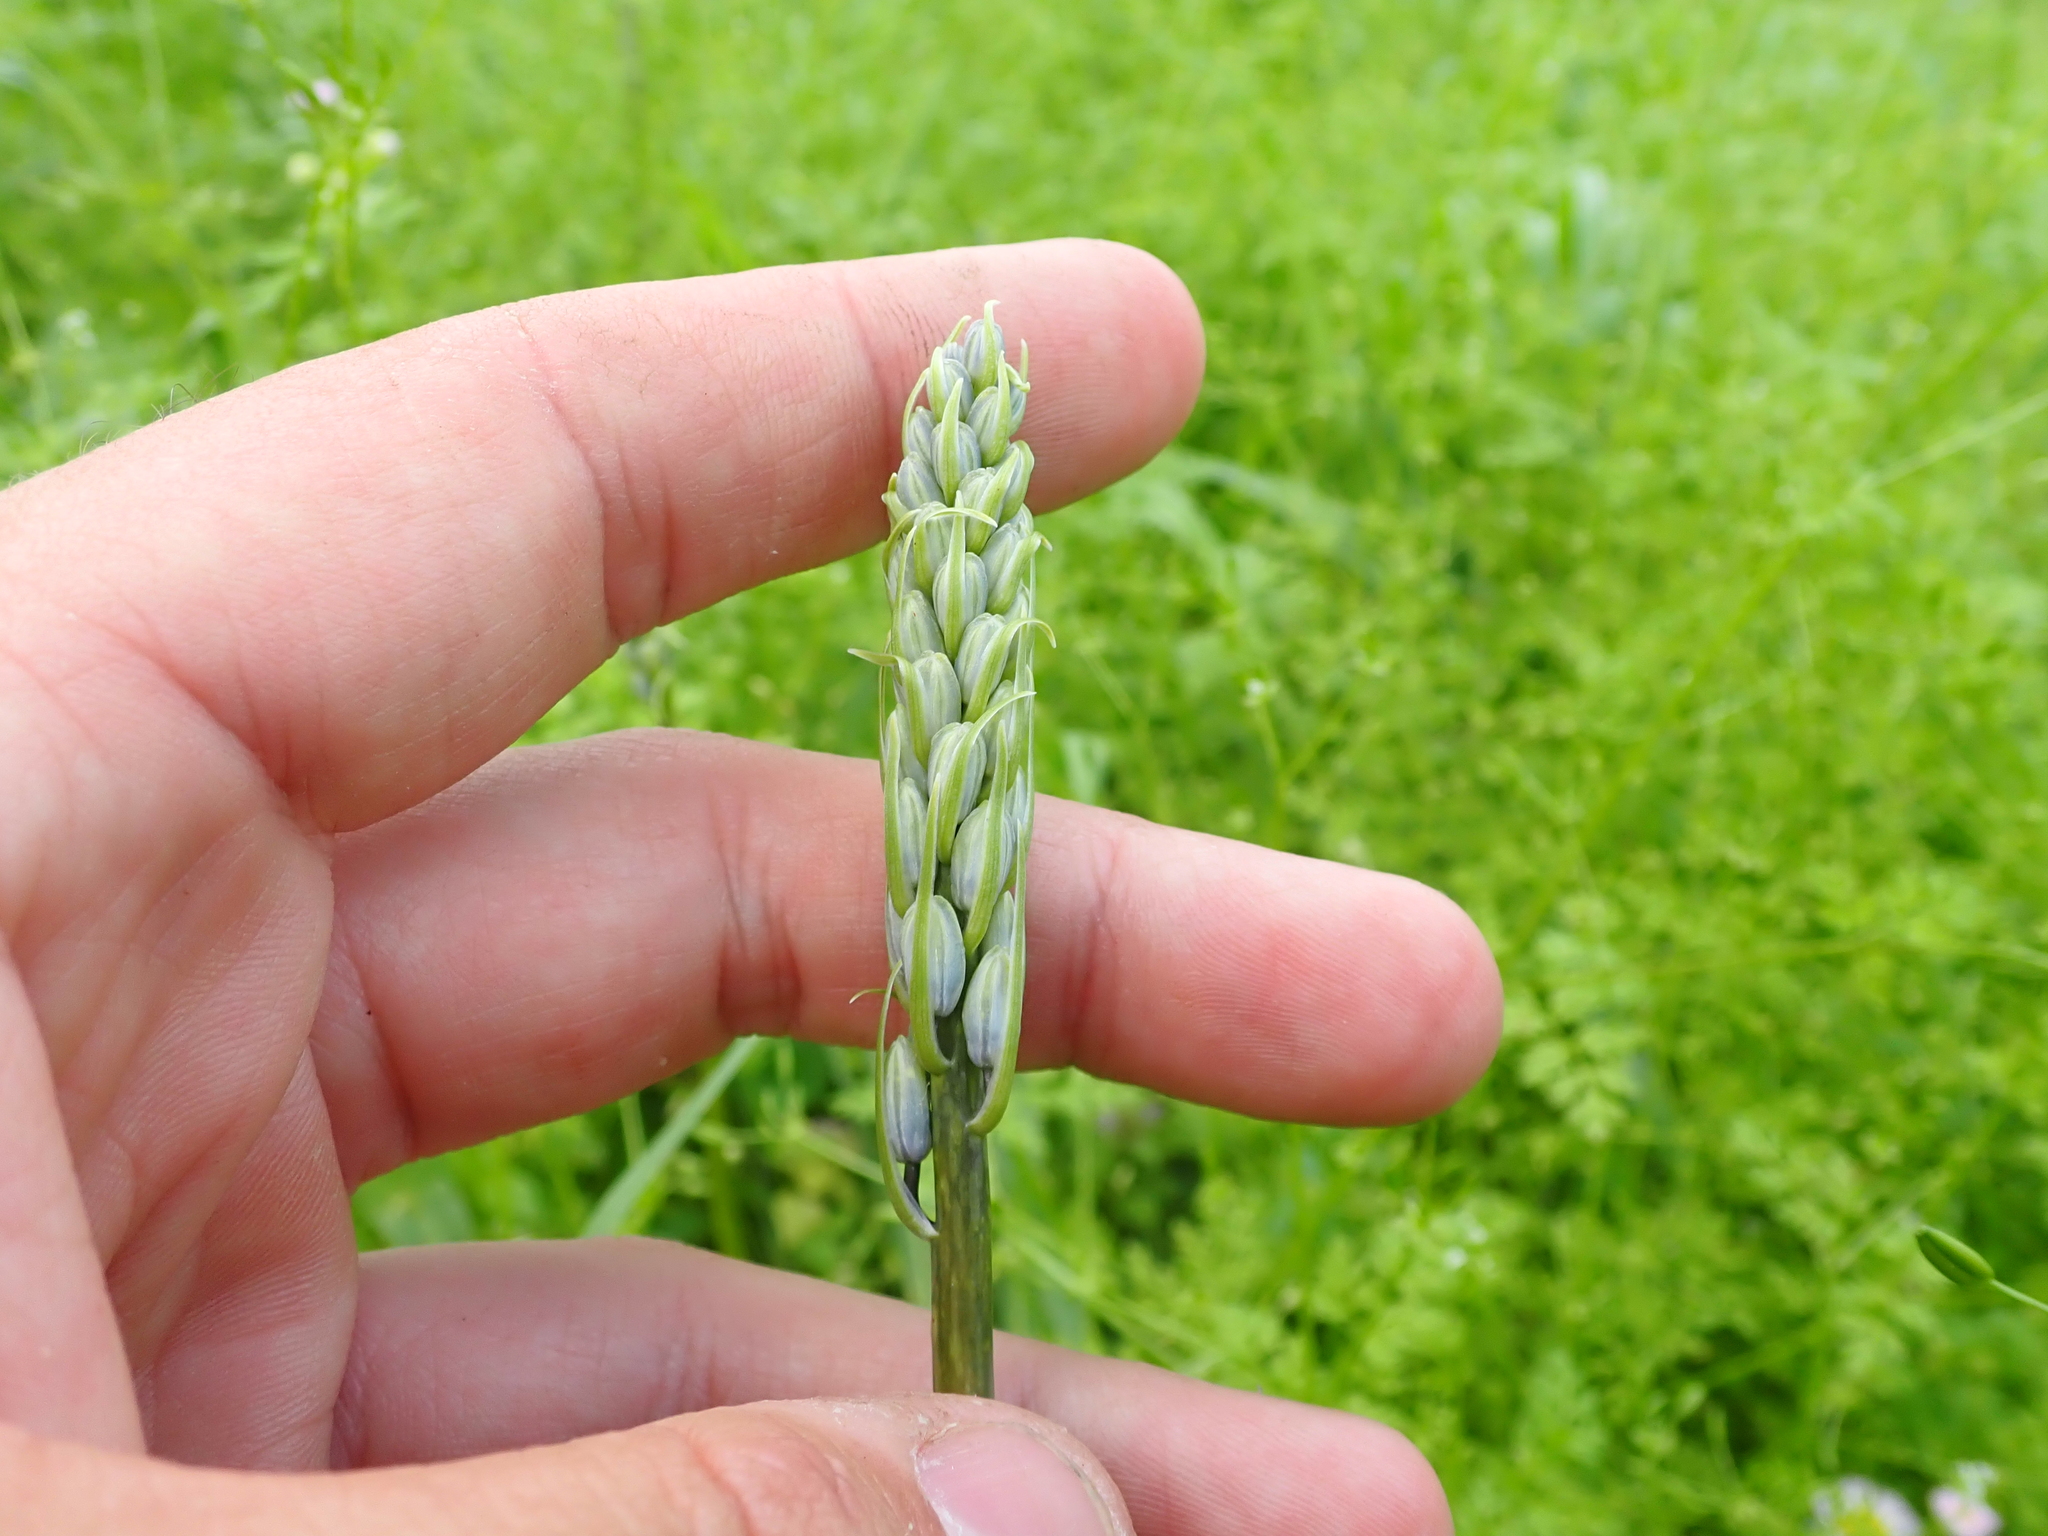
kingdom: Plantae
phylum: Tracheophyta
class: Liliopsida
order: Asparagales
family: Asparagaceae
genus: Camassia
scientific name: Camassia scilloides
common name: Wild hyacinth
